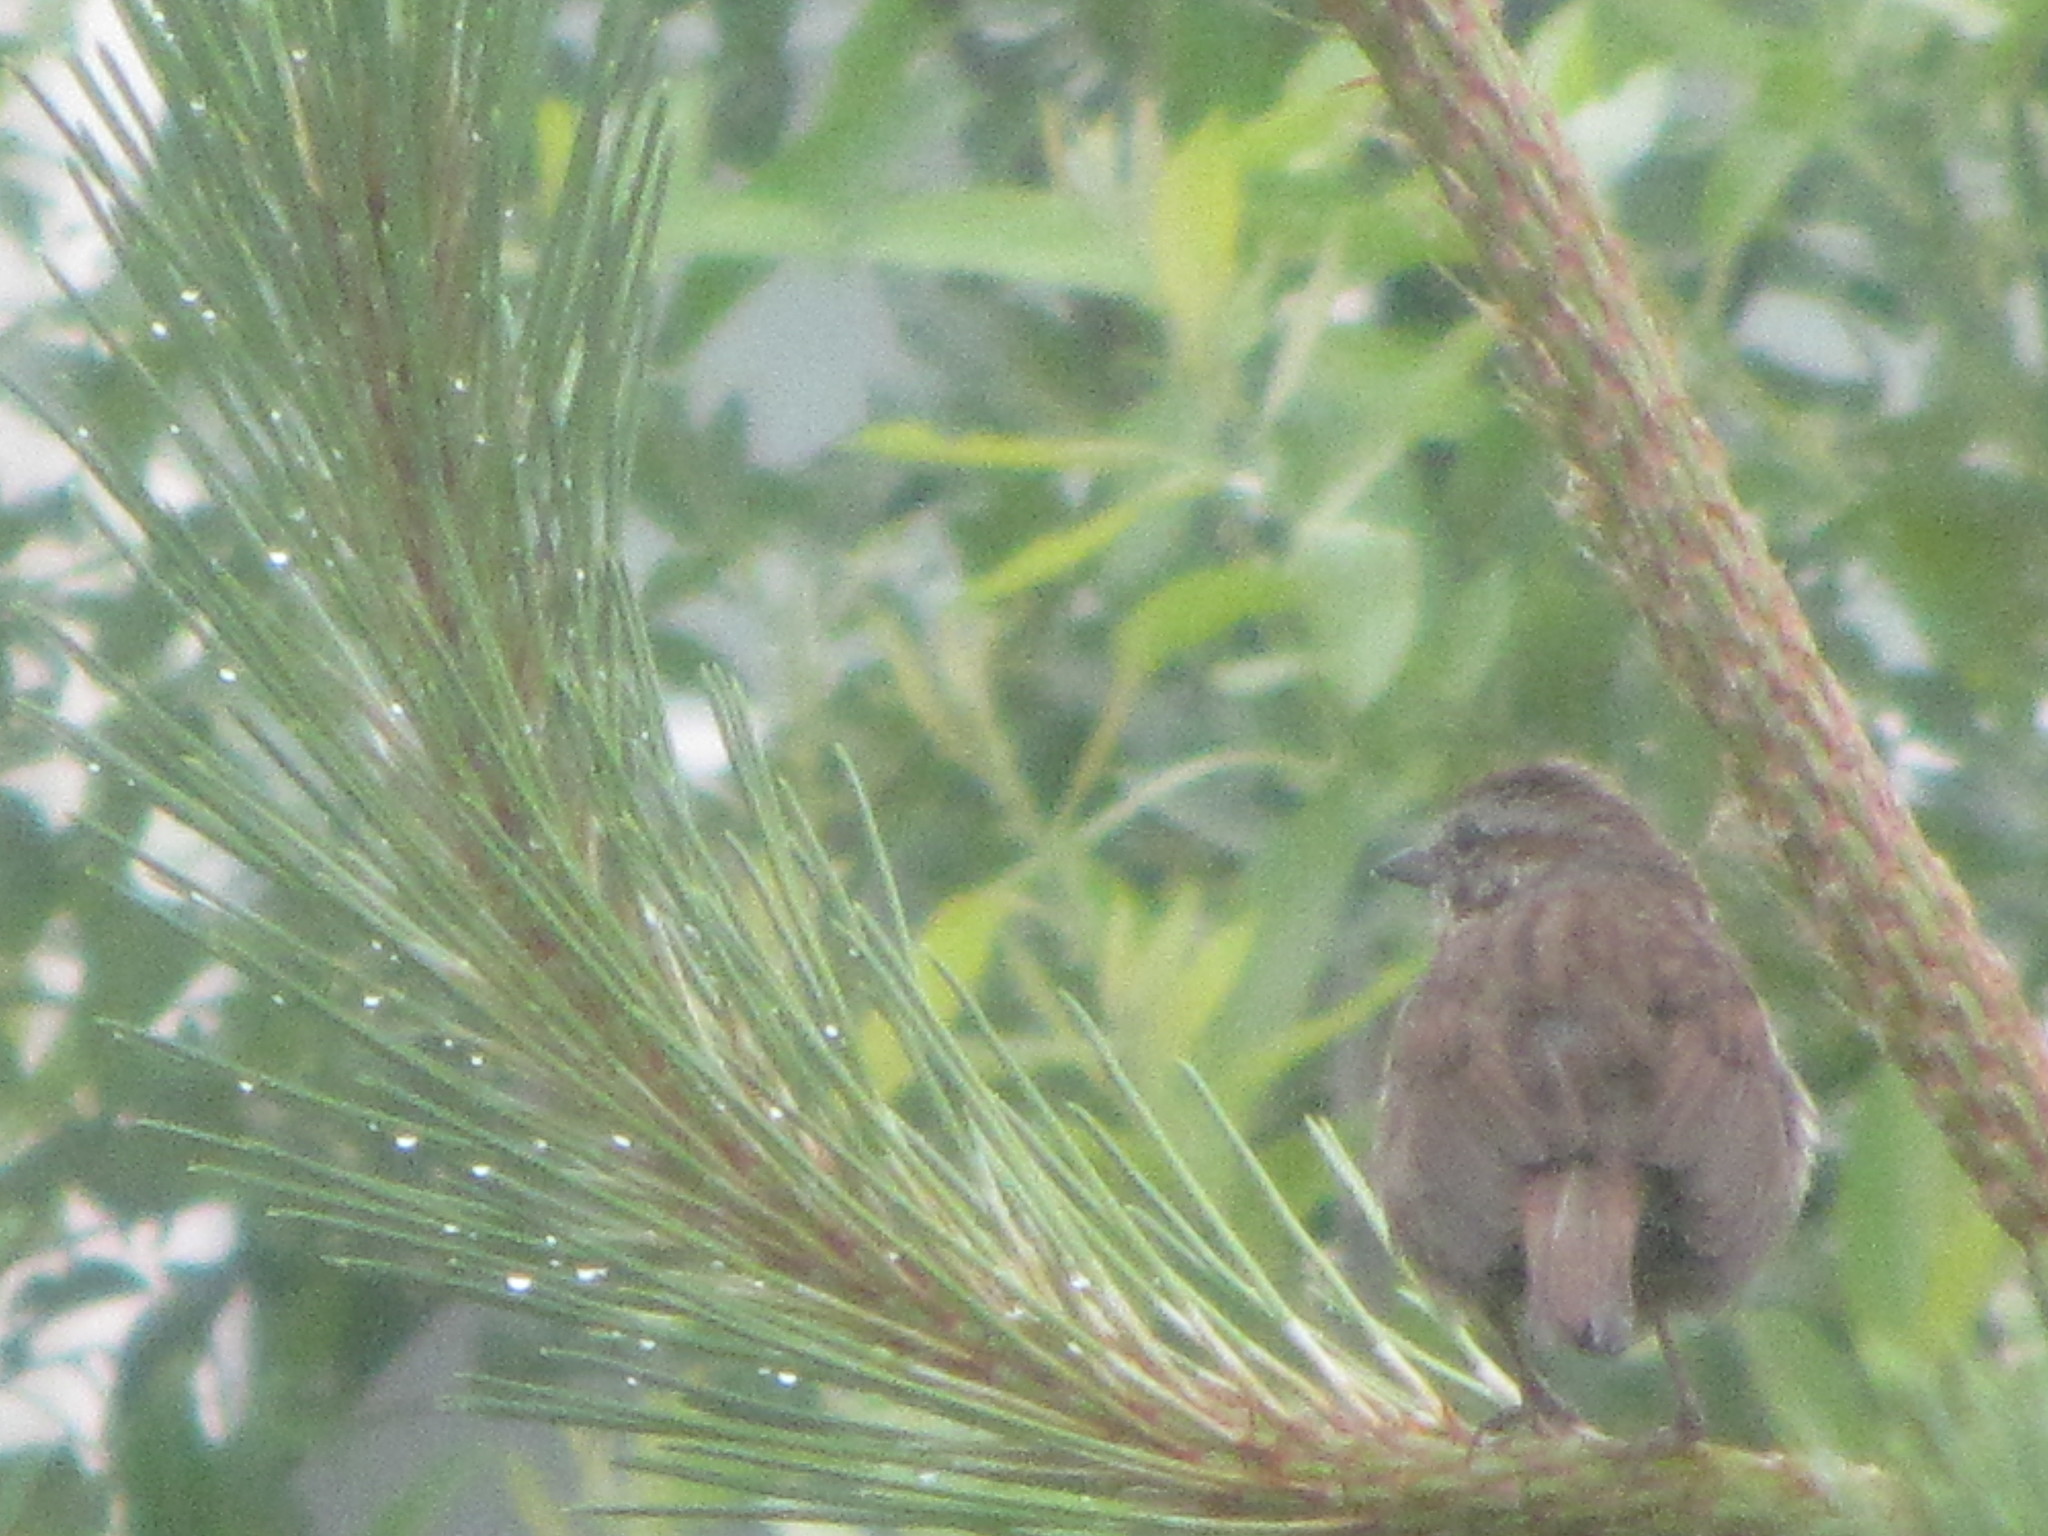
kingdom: Animalia
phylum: Chordata
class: Aves
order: Passeriformes
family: Passerellidae
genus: Melospiza
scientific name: Melospiza melodia
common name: Song sparrow
